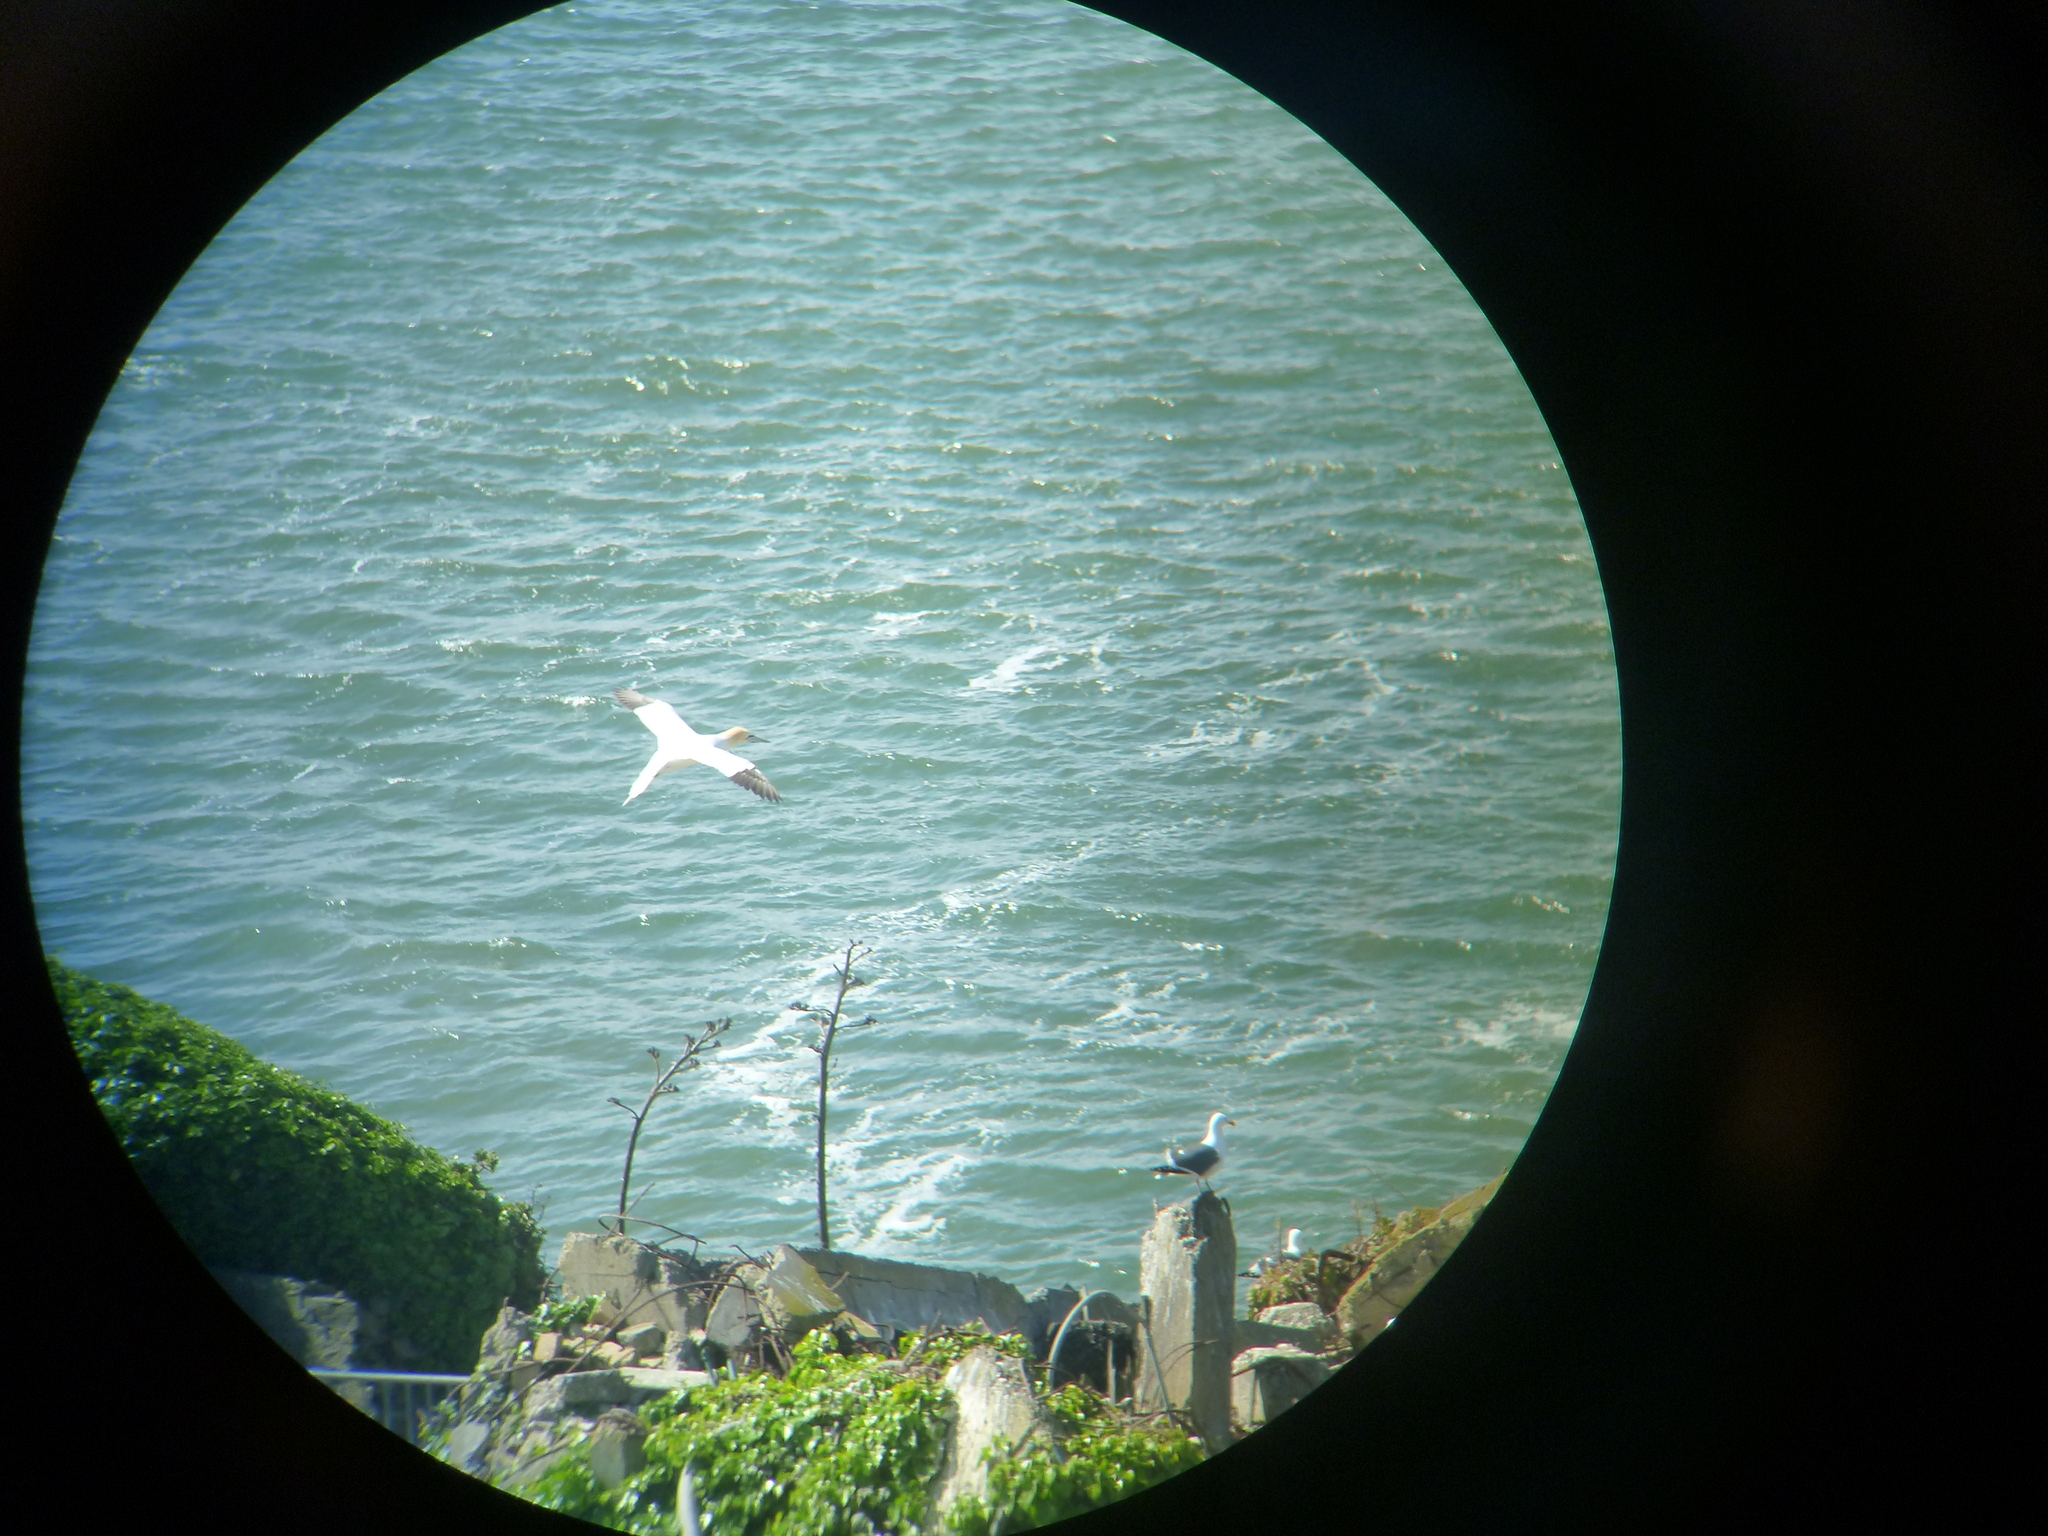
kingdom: Animalia
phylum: Chordata
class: Aves
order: Suliformes
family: Sulidae
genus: Morus
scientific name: Morus bassanus
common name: Northern gannet
